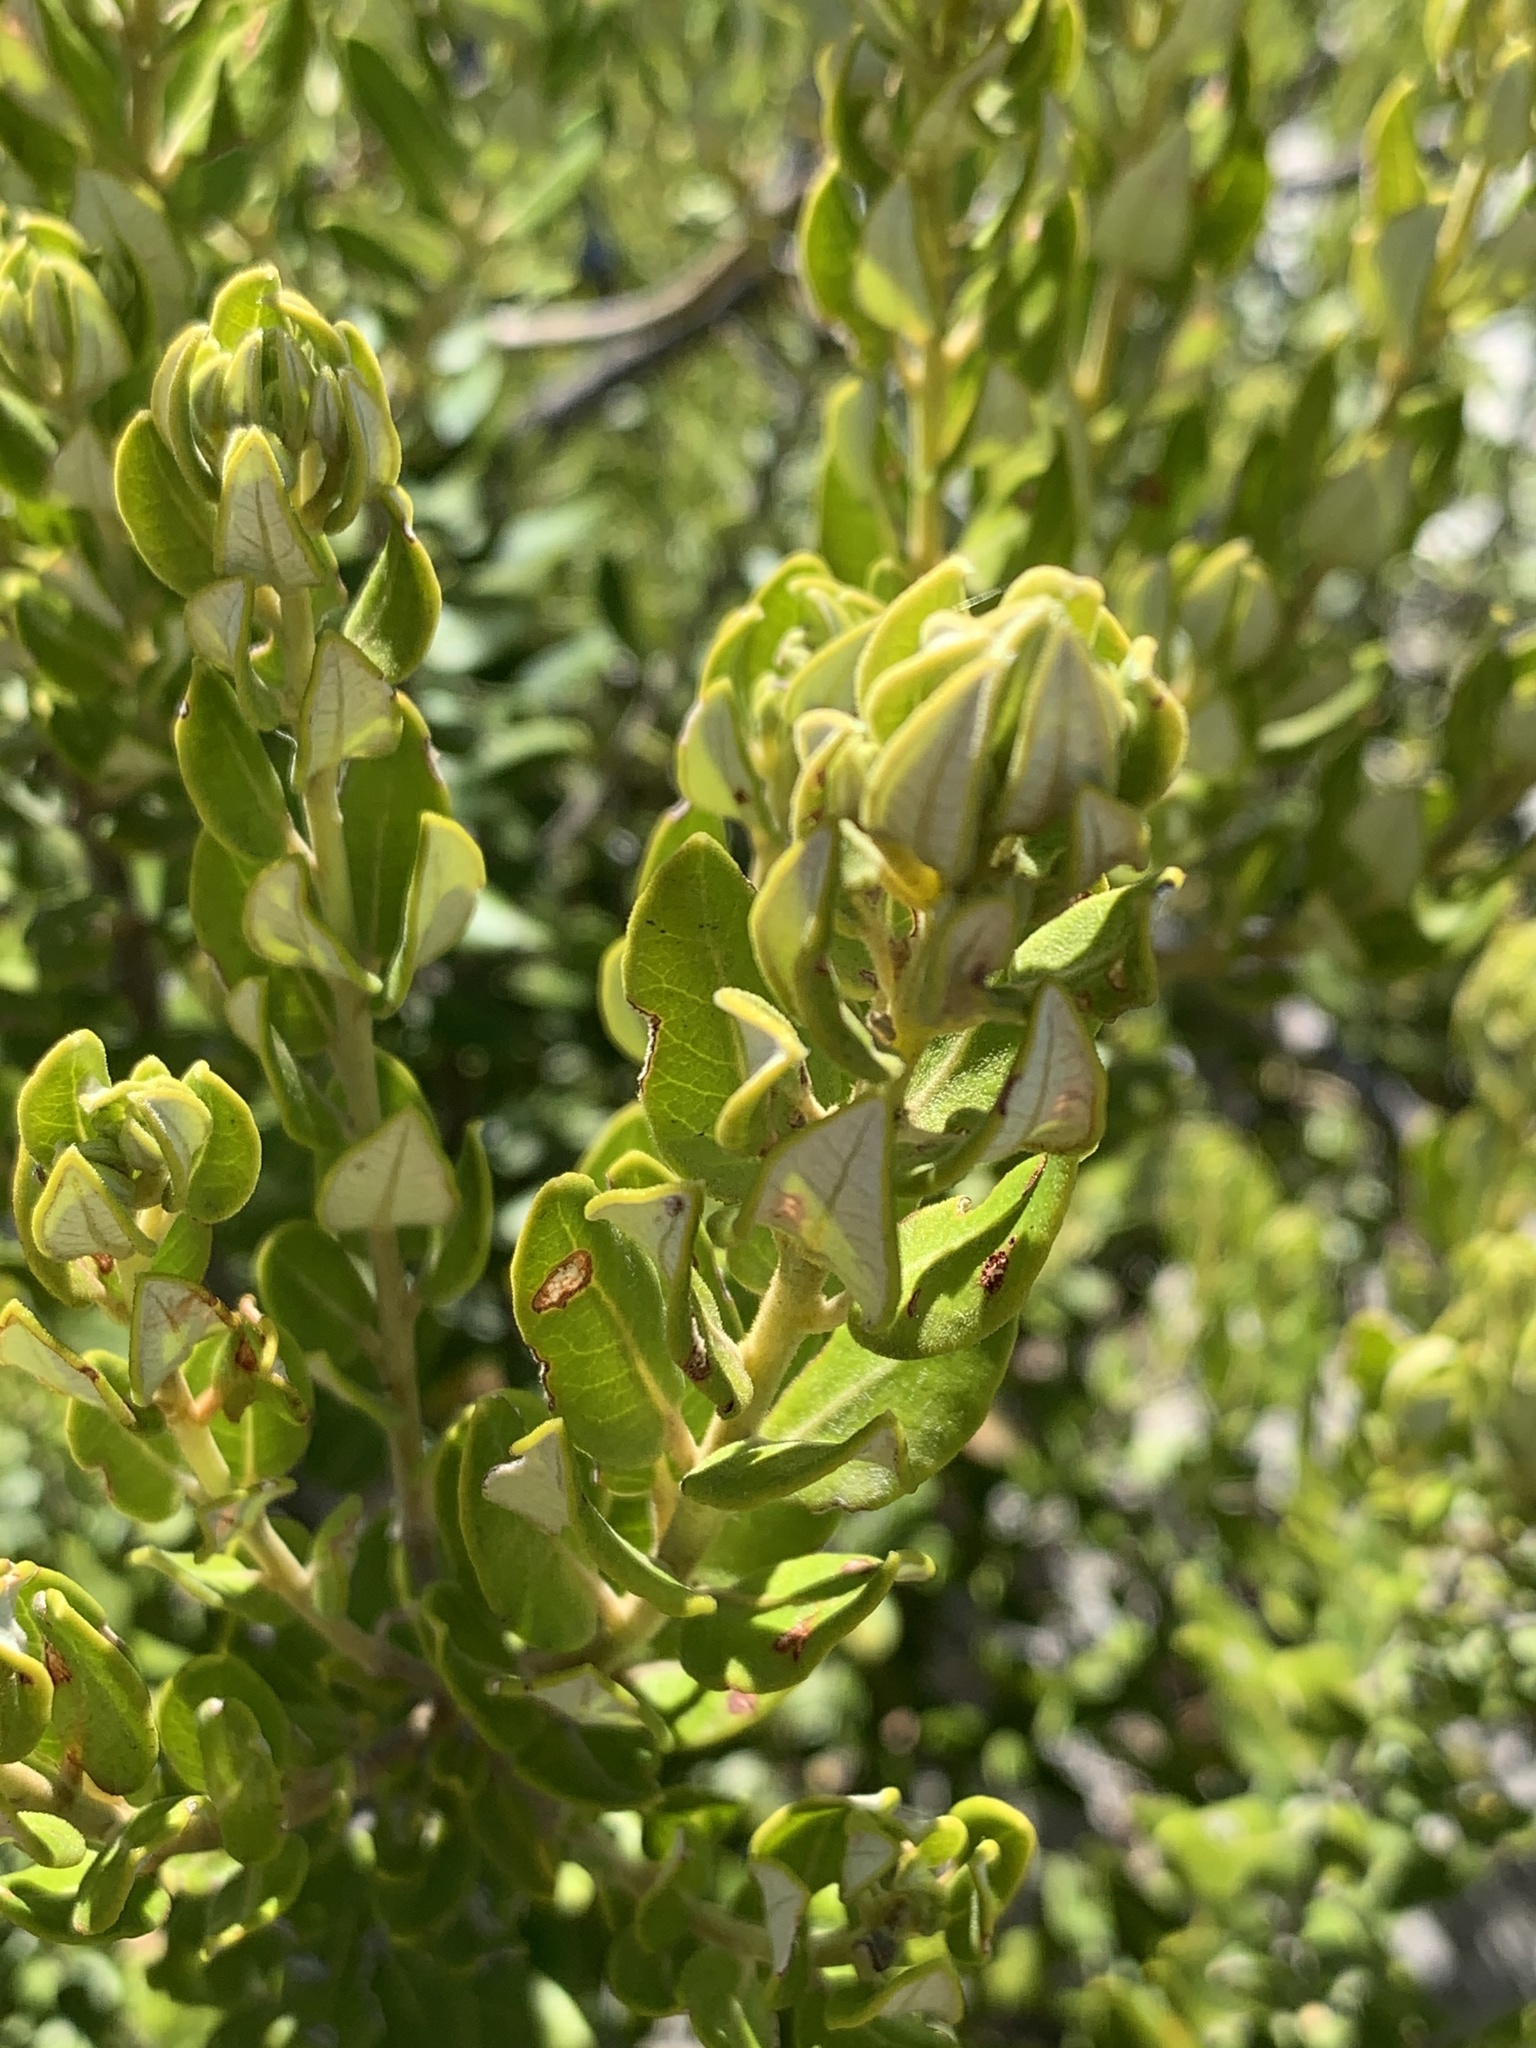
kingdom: Plantae
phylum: Tracheophyta
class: Magnoliopsida
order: Rosales
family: Rhamnaceae
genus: Phylica
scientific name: Phylica buxifolia
